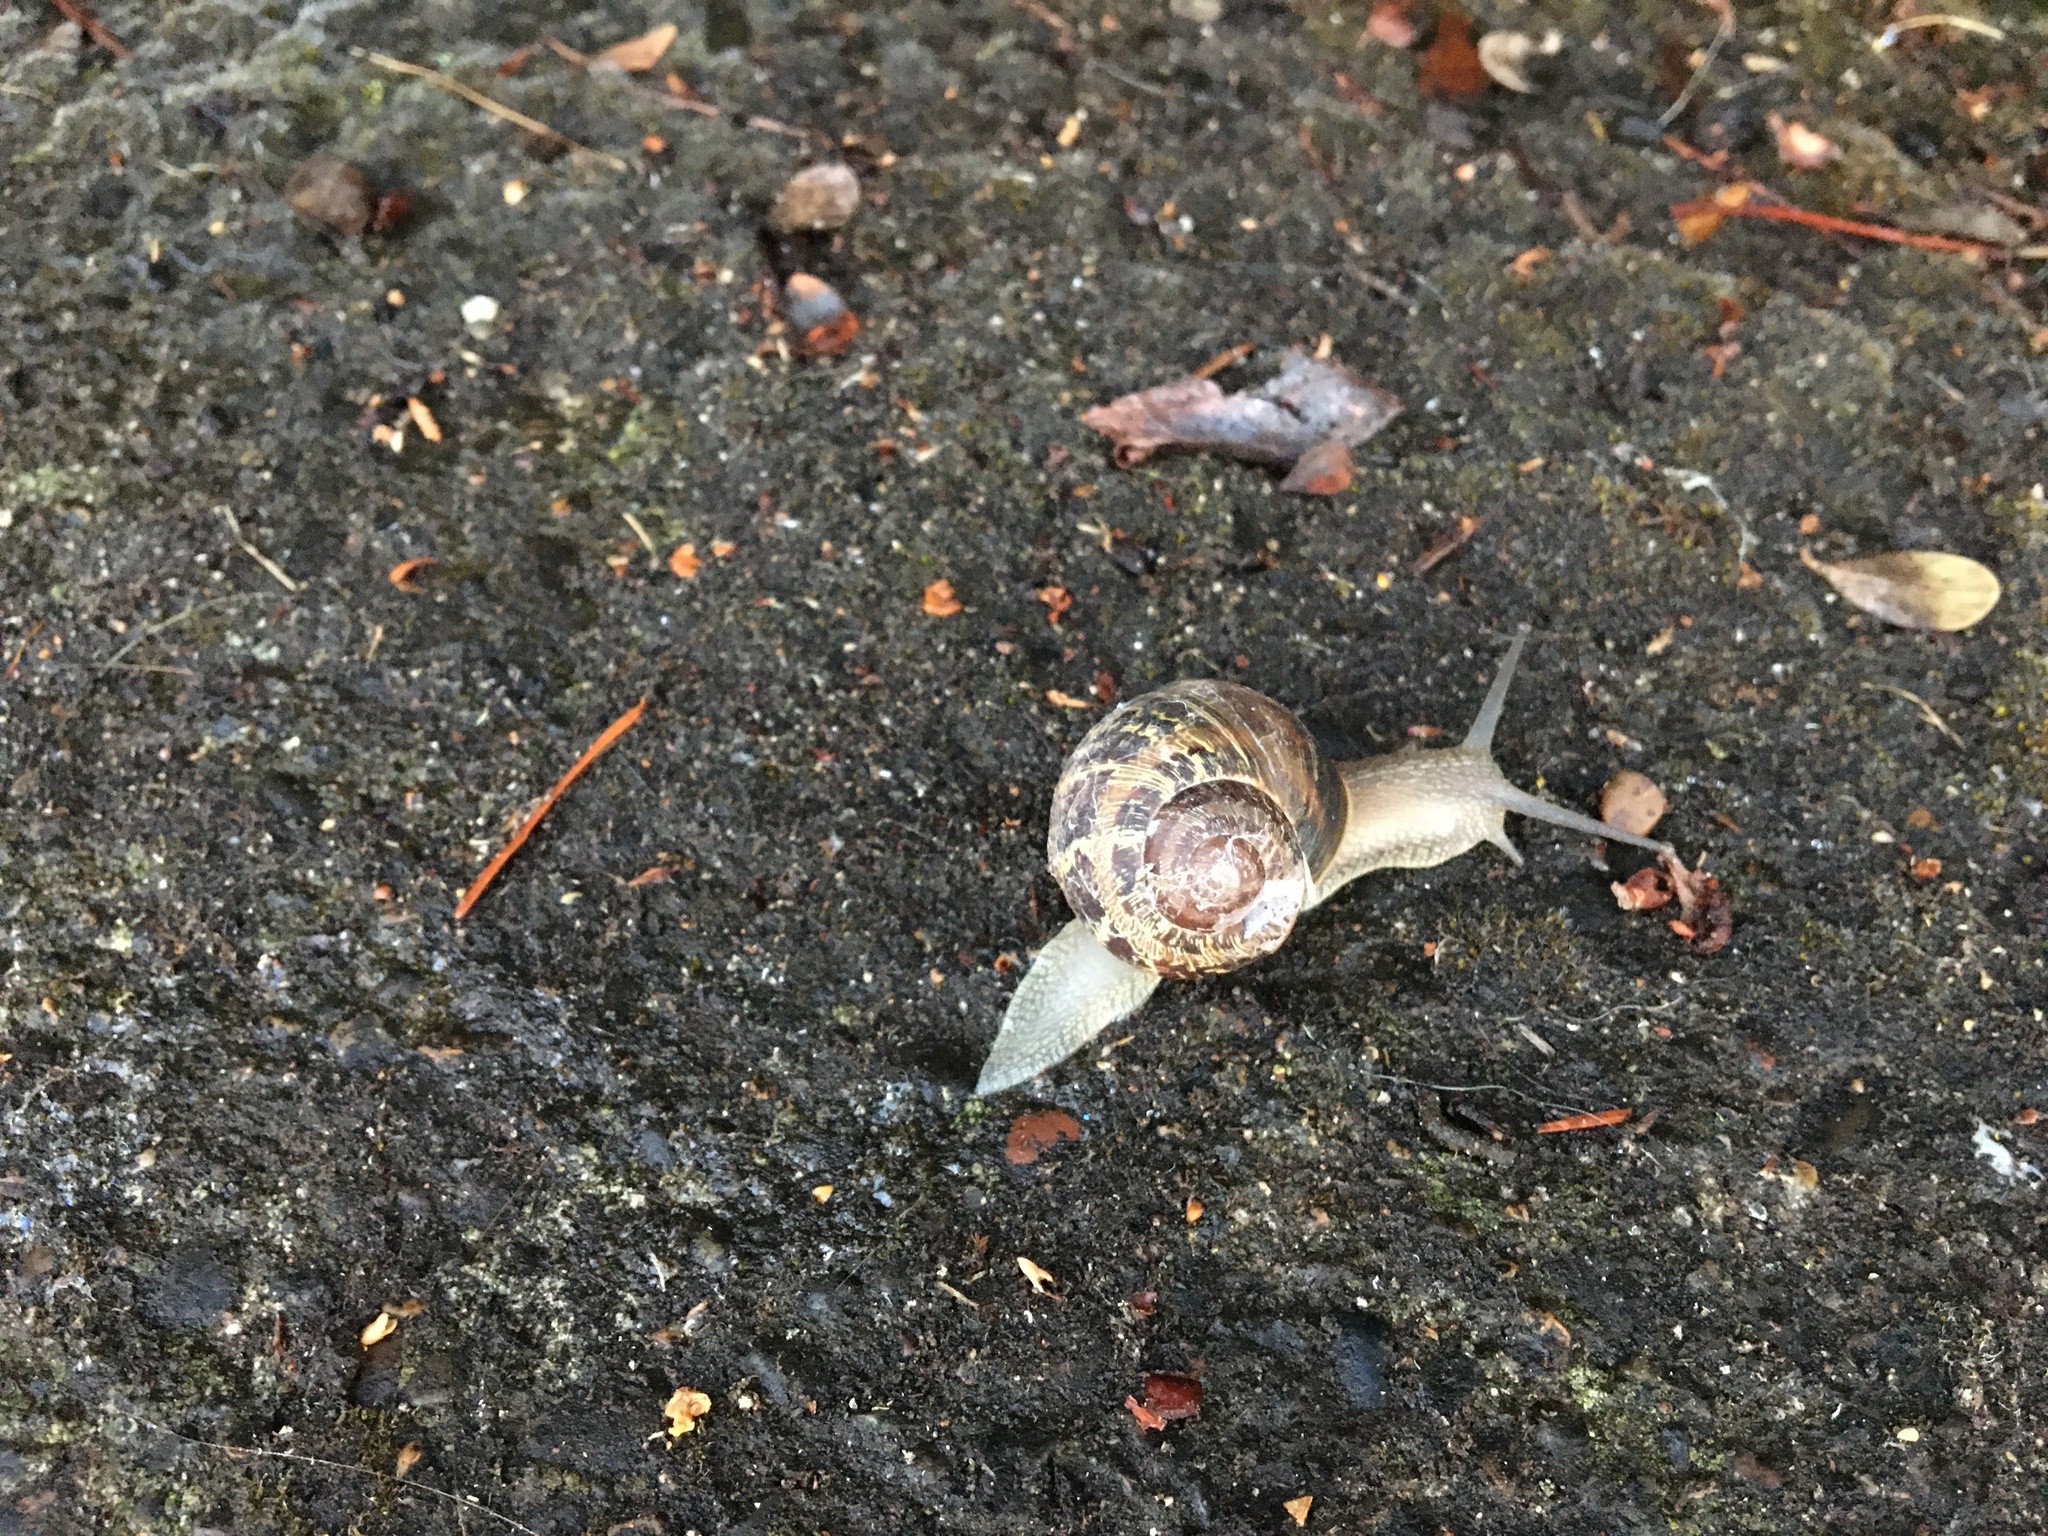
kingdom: Animalia
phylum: Mollusca
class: Gastropoda
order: Stylommatophora
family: Helicidae
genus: Cornu
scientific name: Cornu aspersum
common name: Brown garden snail
